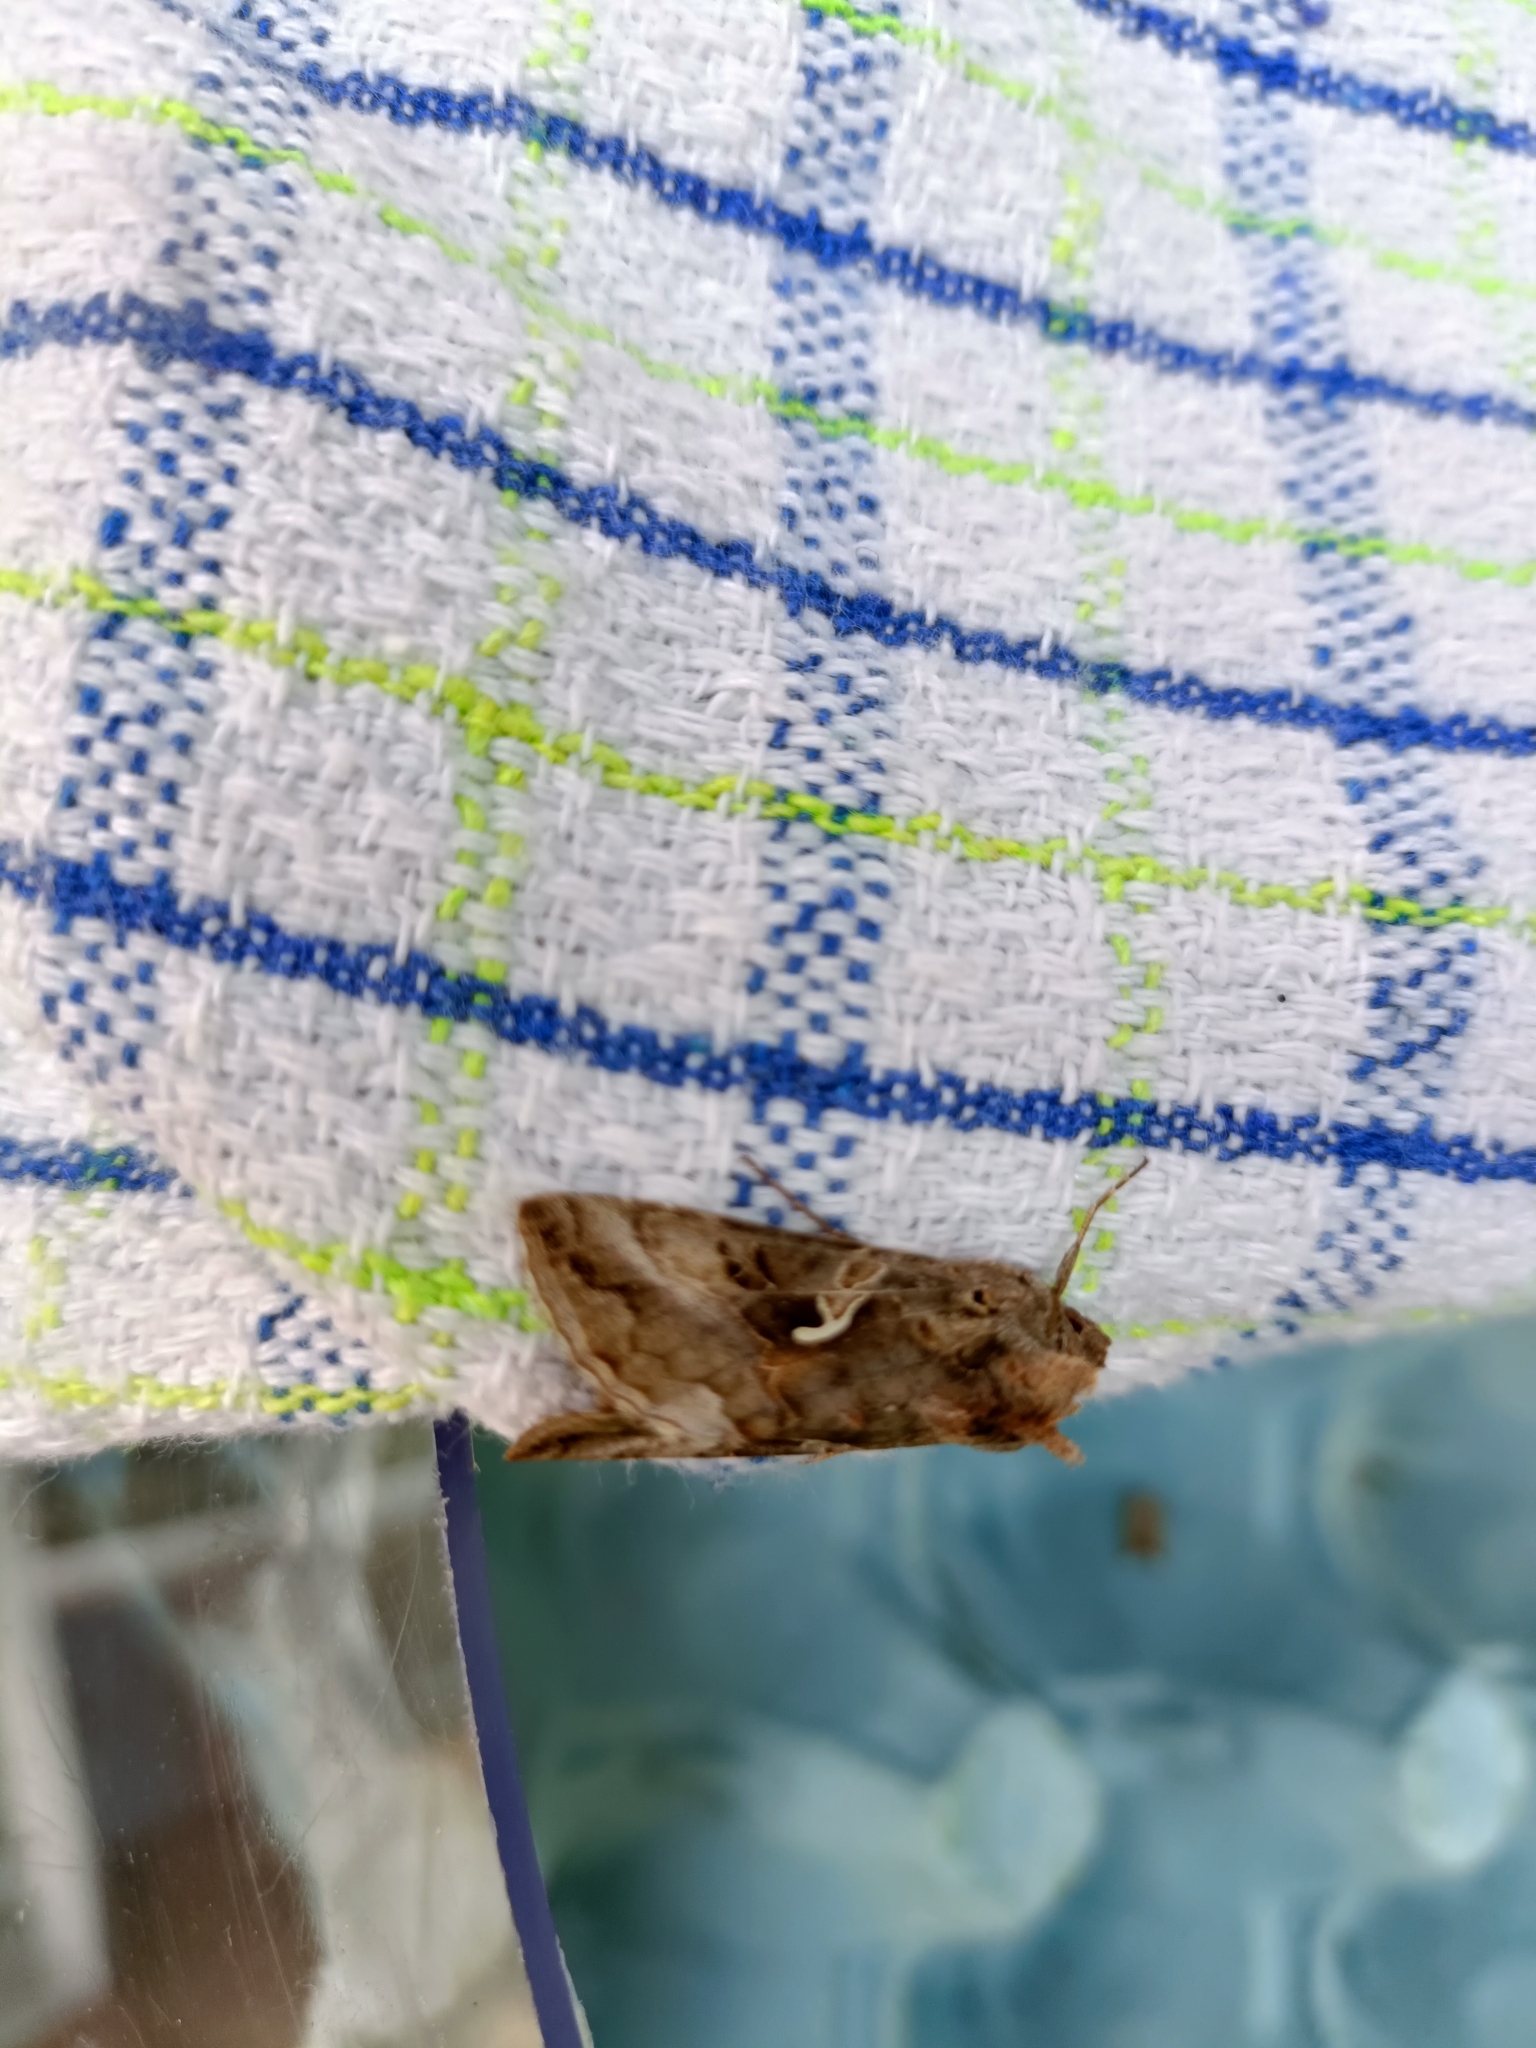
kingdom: Animalia
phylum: Arthropoda
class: Insecta
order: Lepidoptera
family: Noctuidae
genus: Autographa
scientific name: Autographa gamma
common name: Silver y
